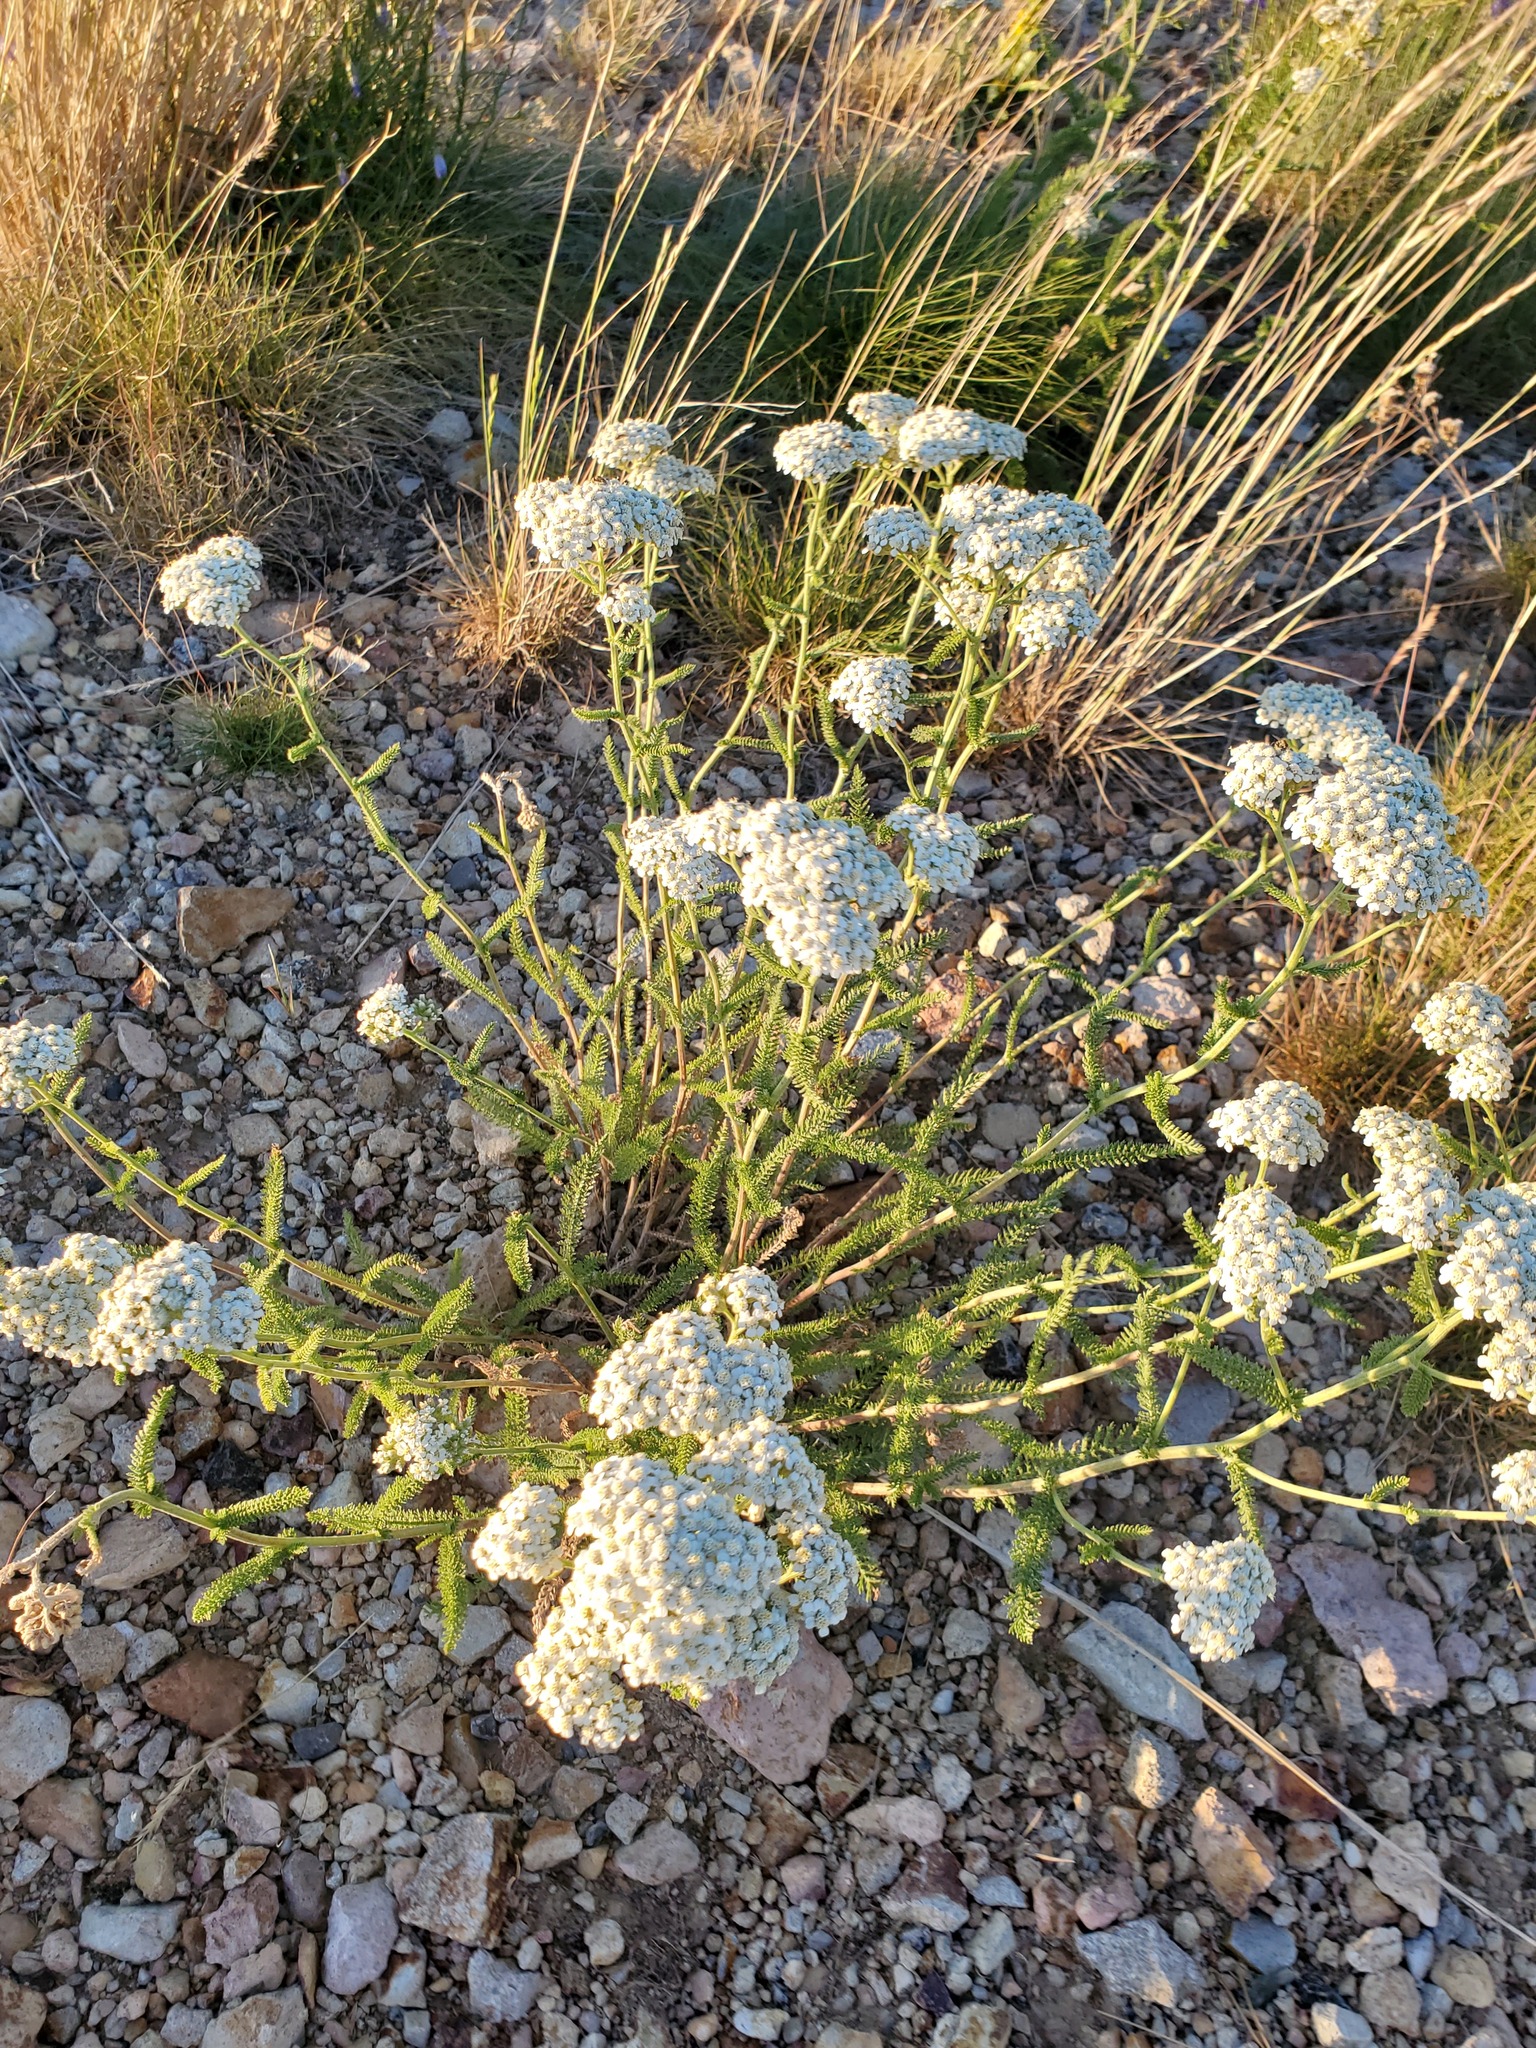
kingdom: Plantae
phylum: Tracheophyta
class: Magnoliopsida
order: Asterales
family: Asteraceae
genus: Achillea
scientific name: Achillea millefolium
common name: Yarrow
